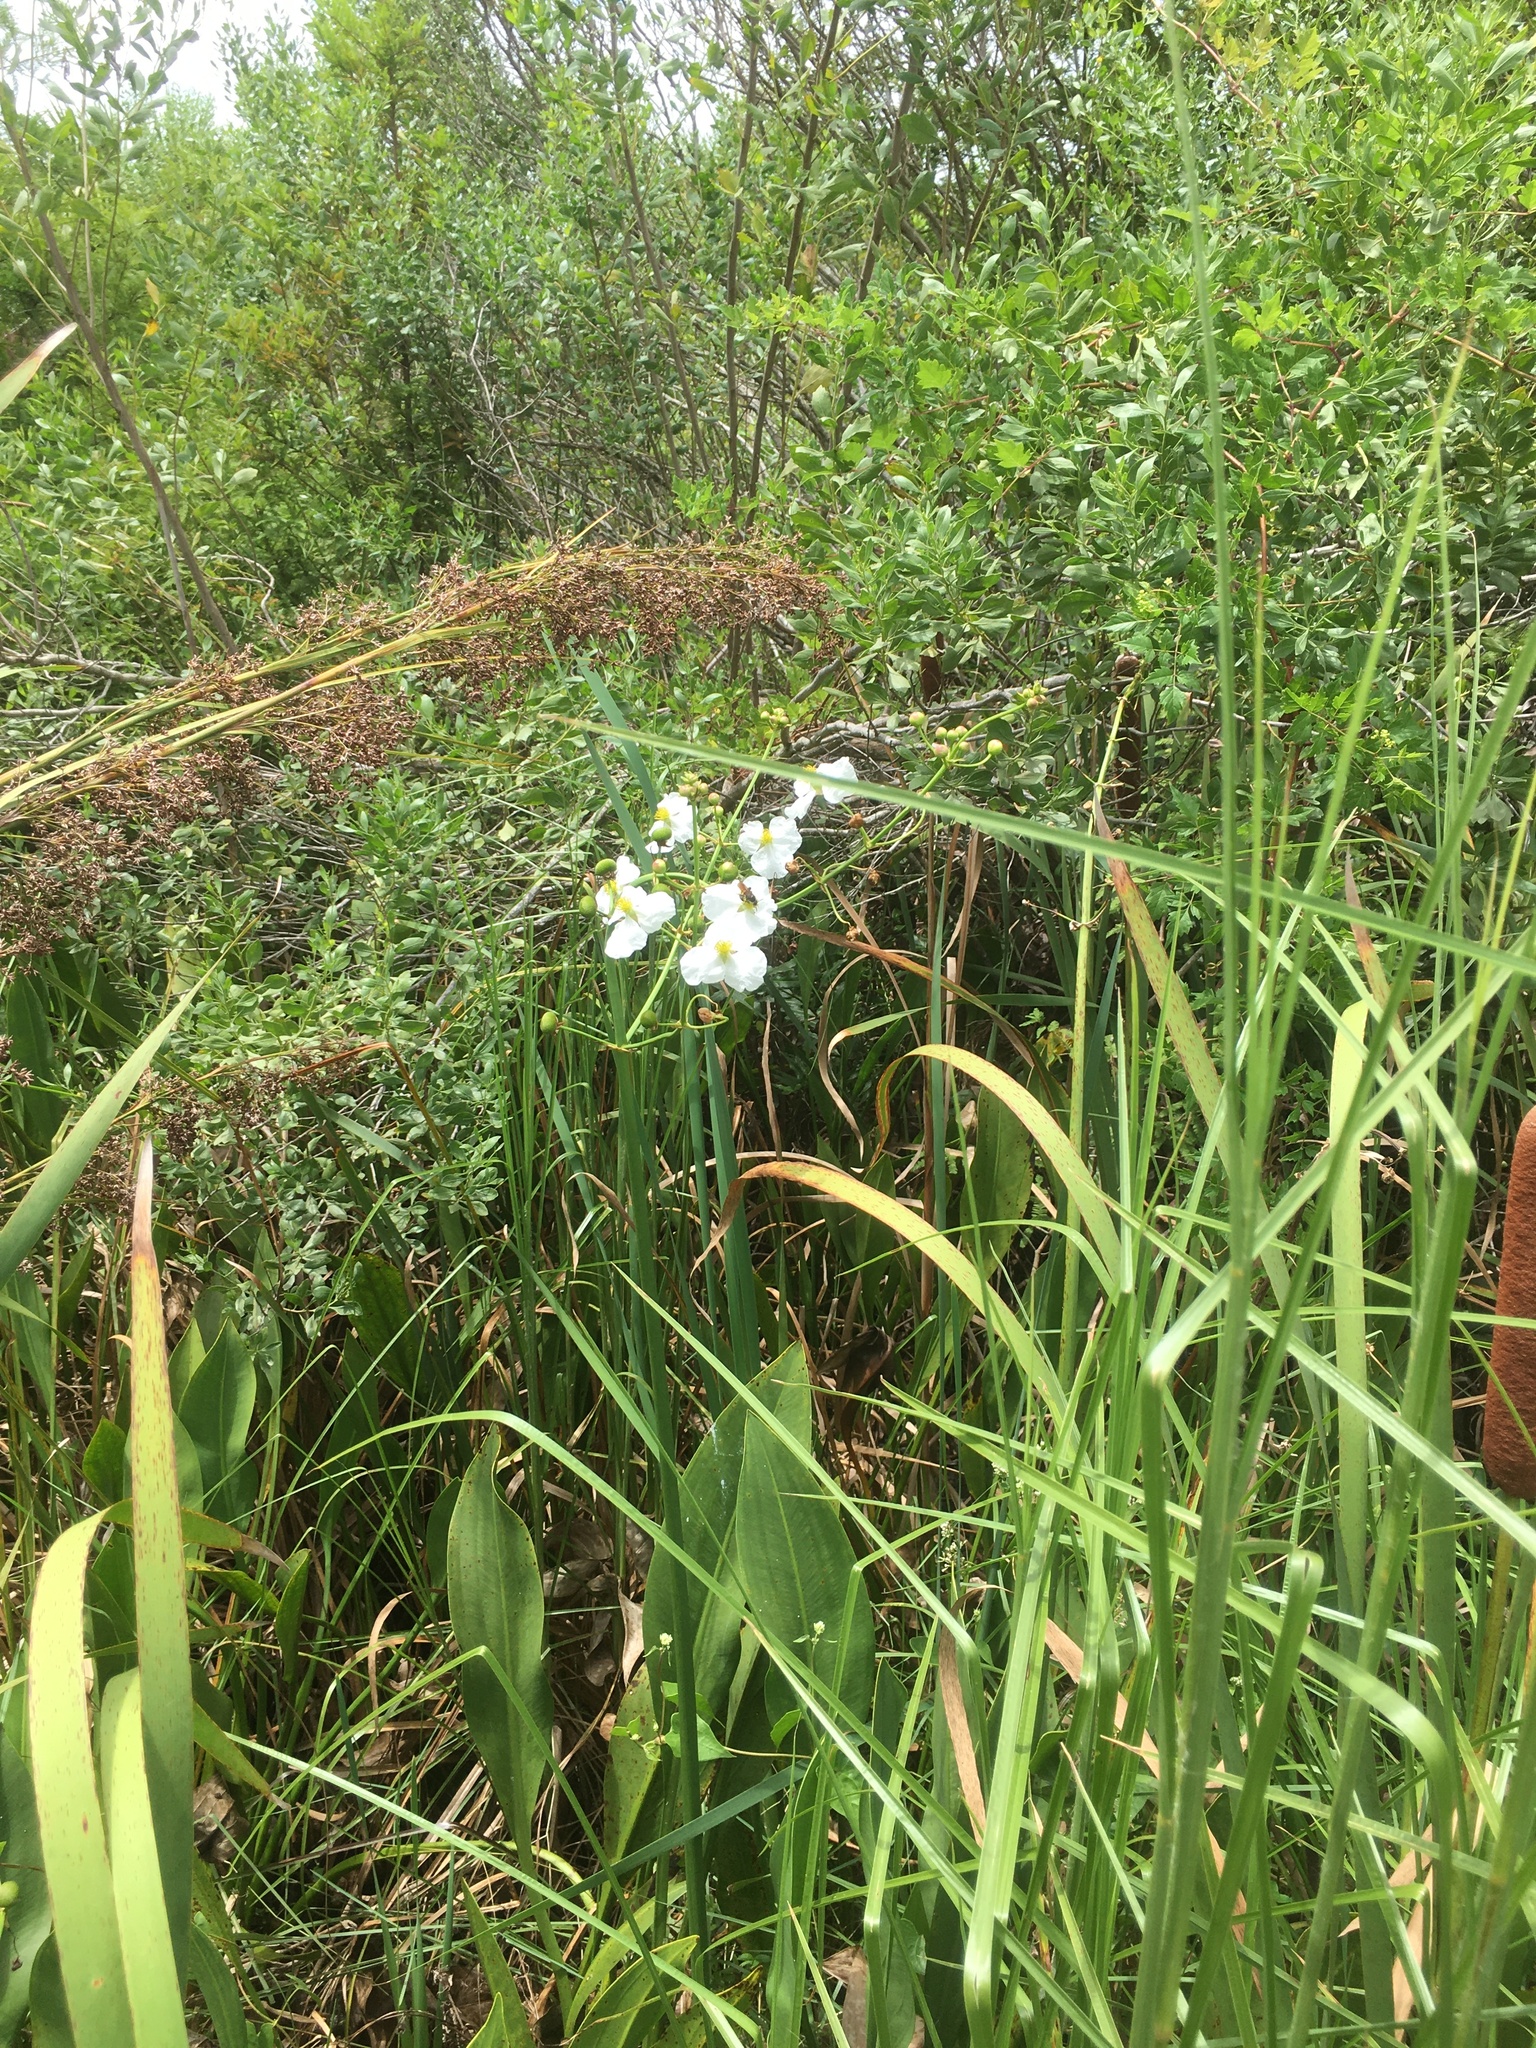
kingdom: Plantae
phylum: Tracheophyta
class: Liliopsida
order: Alismatales
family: Alismataceae
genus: Sagittaria
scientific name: Sagittaria lancifolia
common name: Lance-leaf arrowhead
